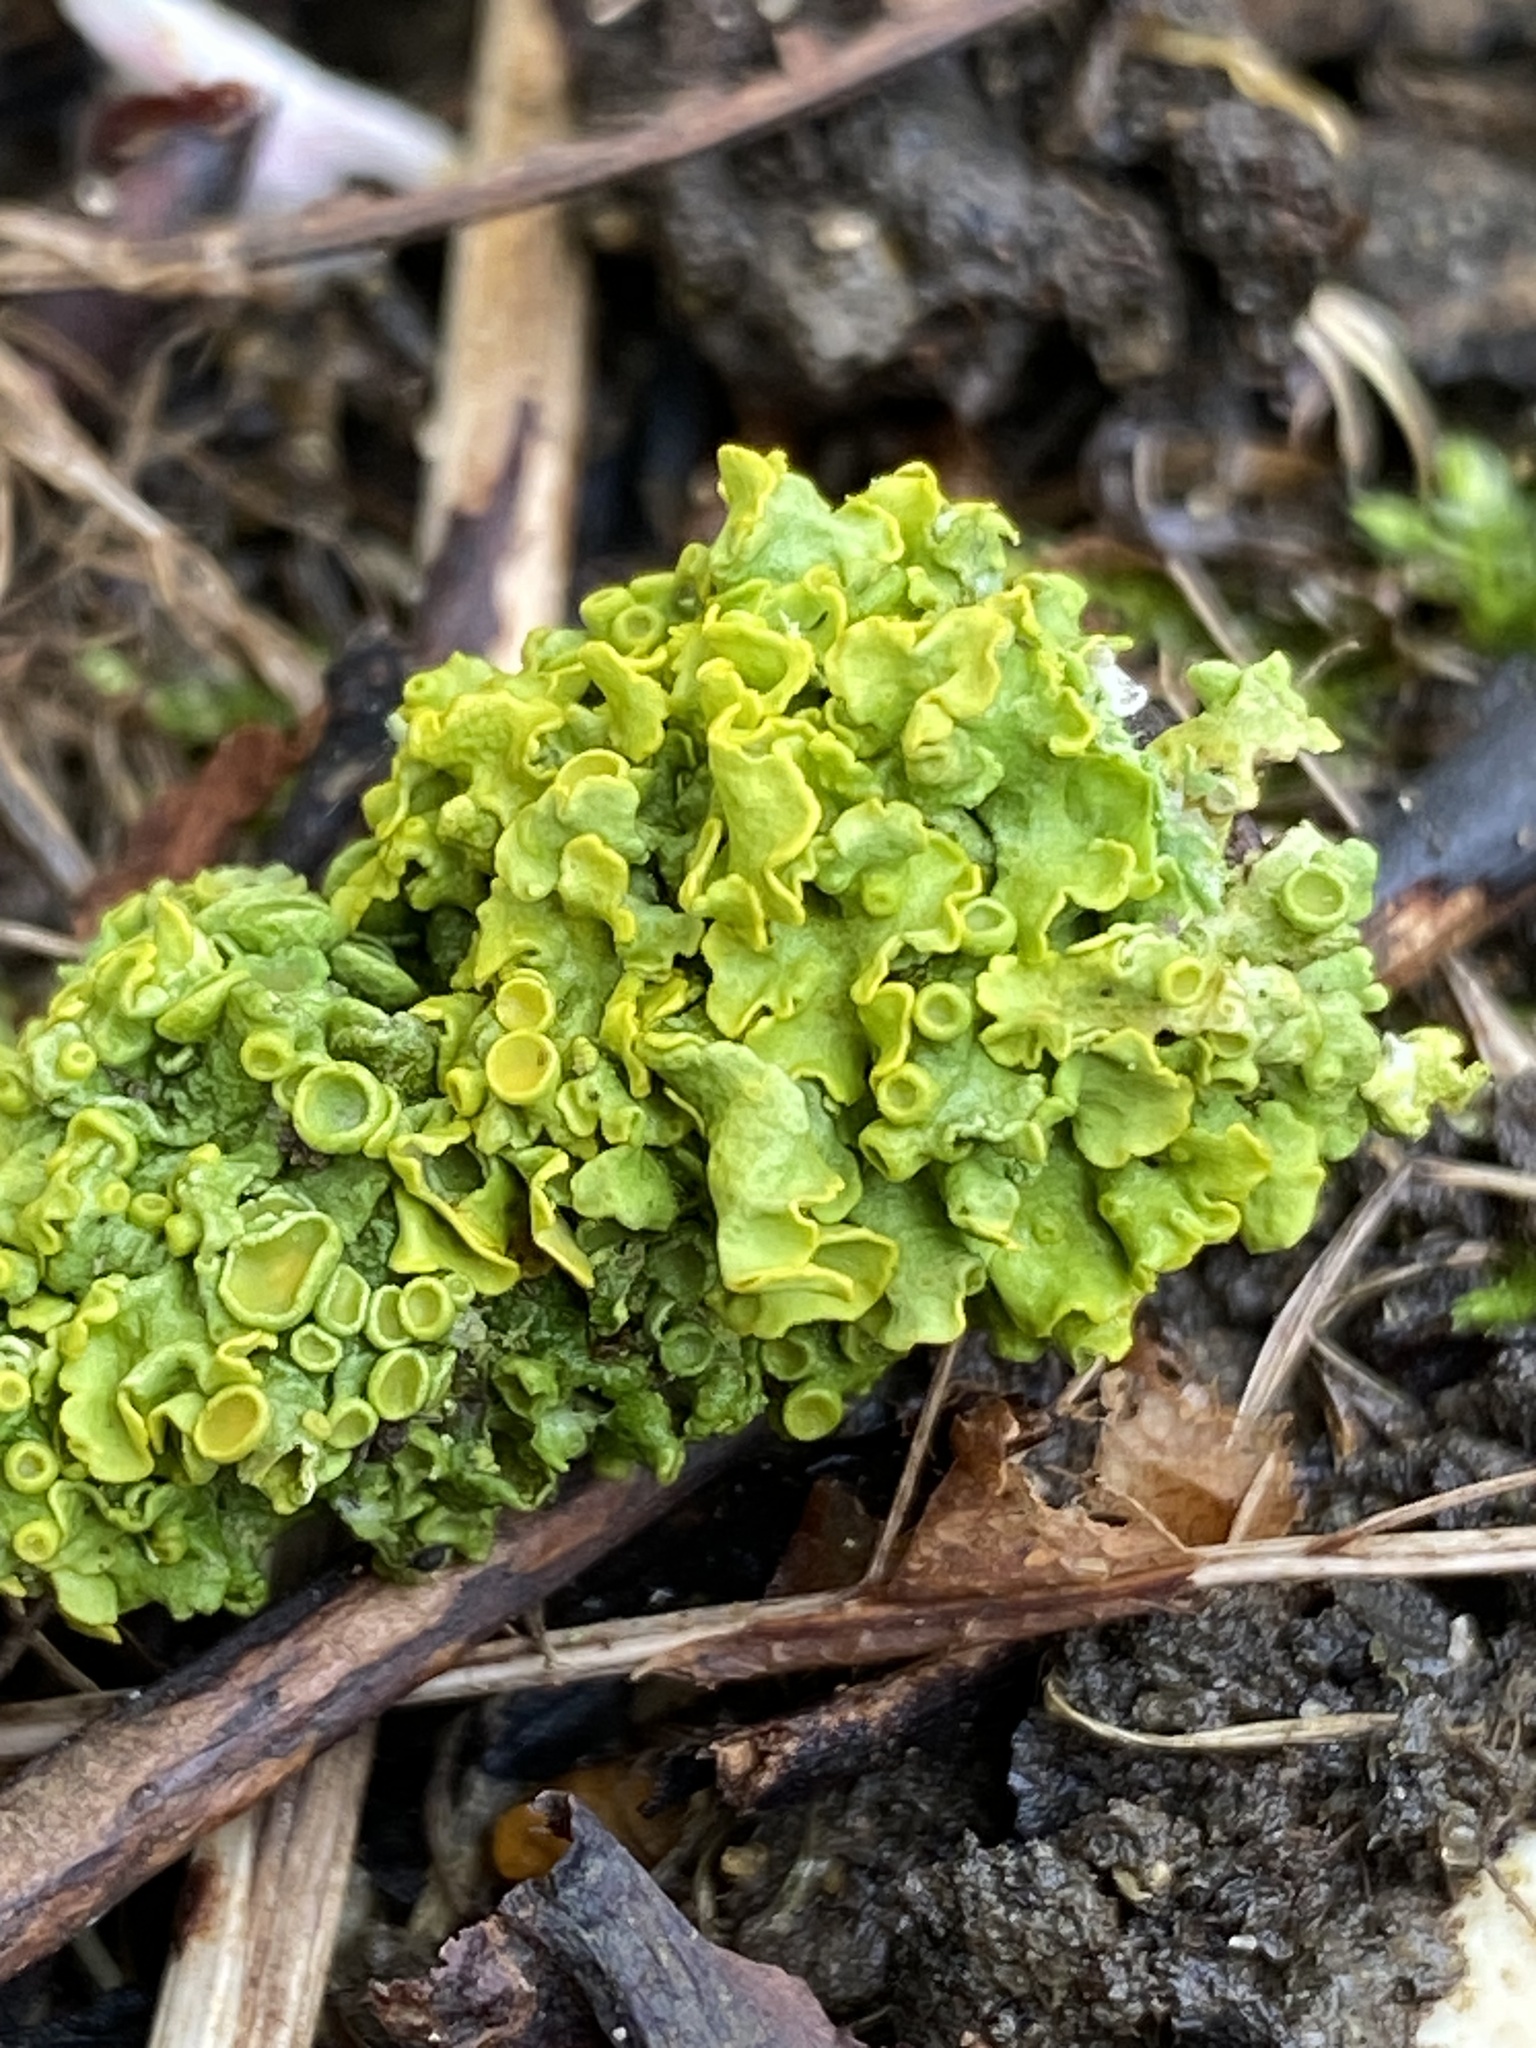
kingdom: Fungi
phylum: Ascomycota
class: Lecanoromycetes
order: Teloschistales
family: Teloschistaceae
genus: Xanthoria
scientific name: Xanthoria parietina
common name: Common orange lichen
